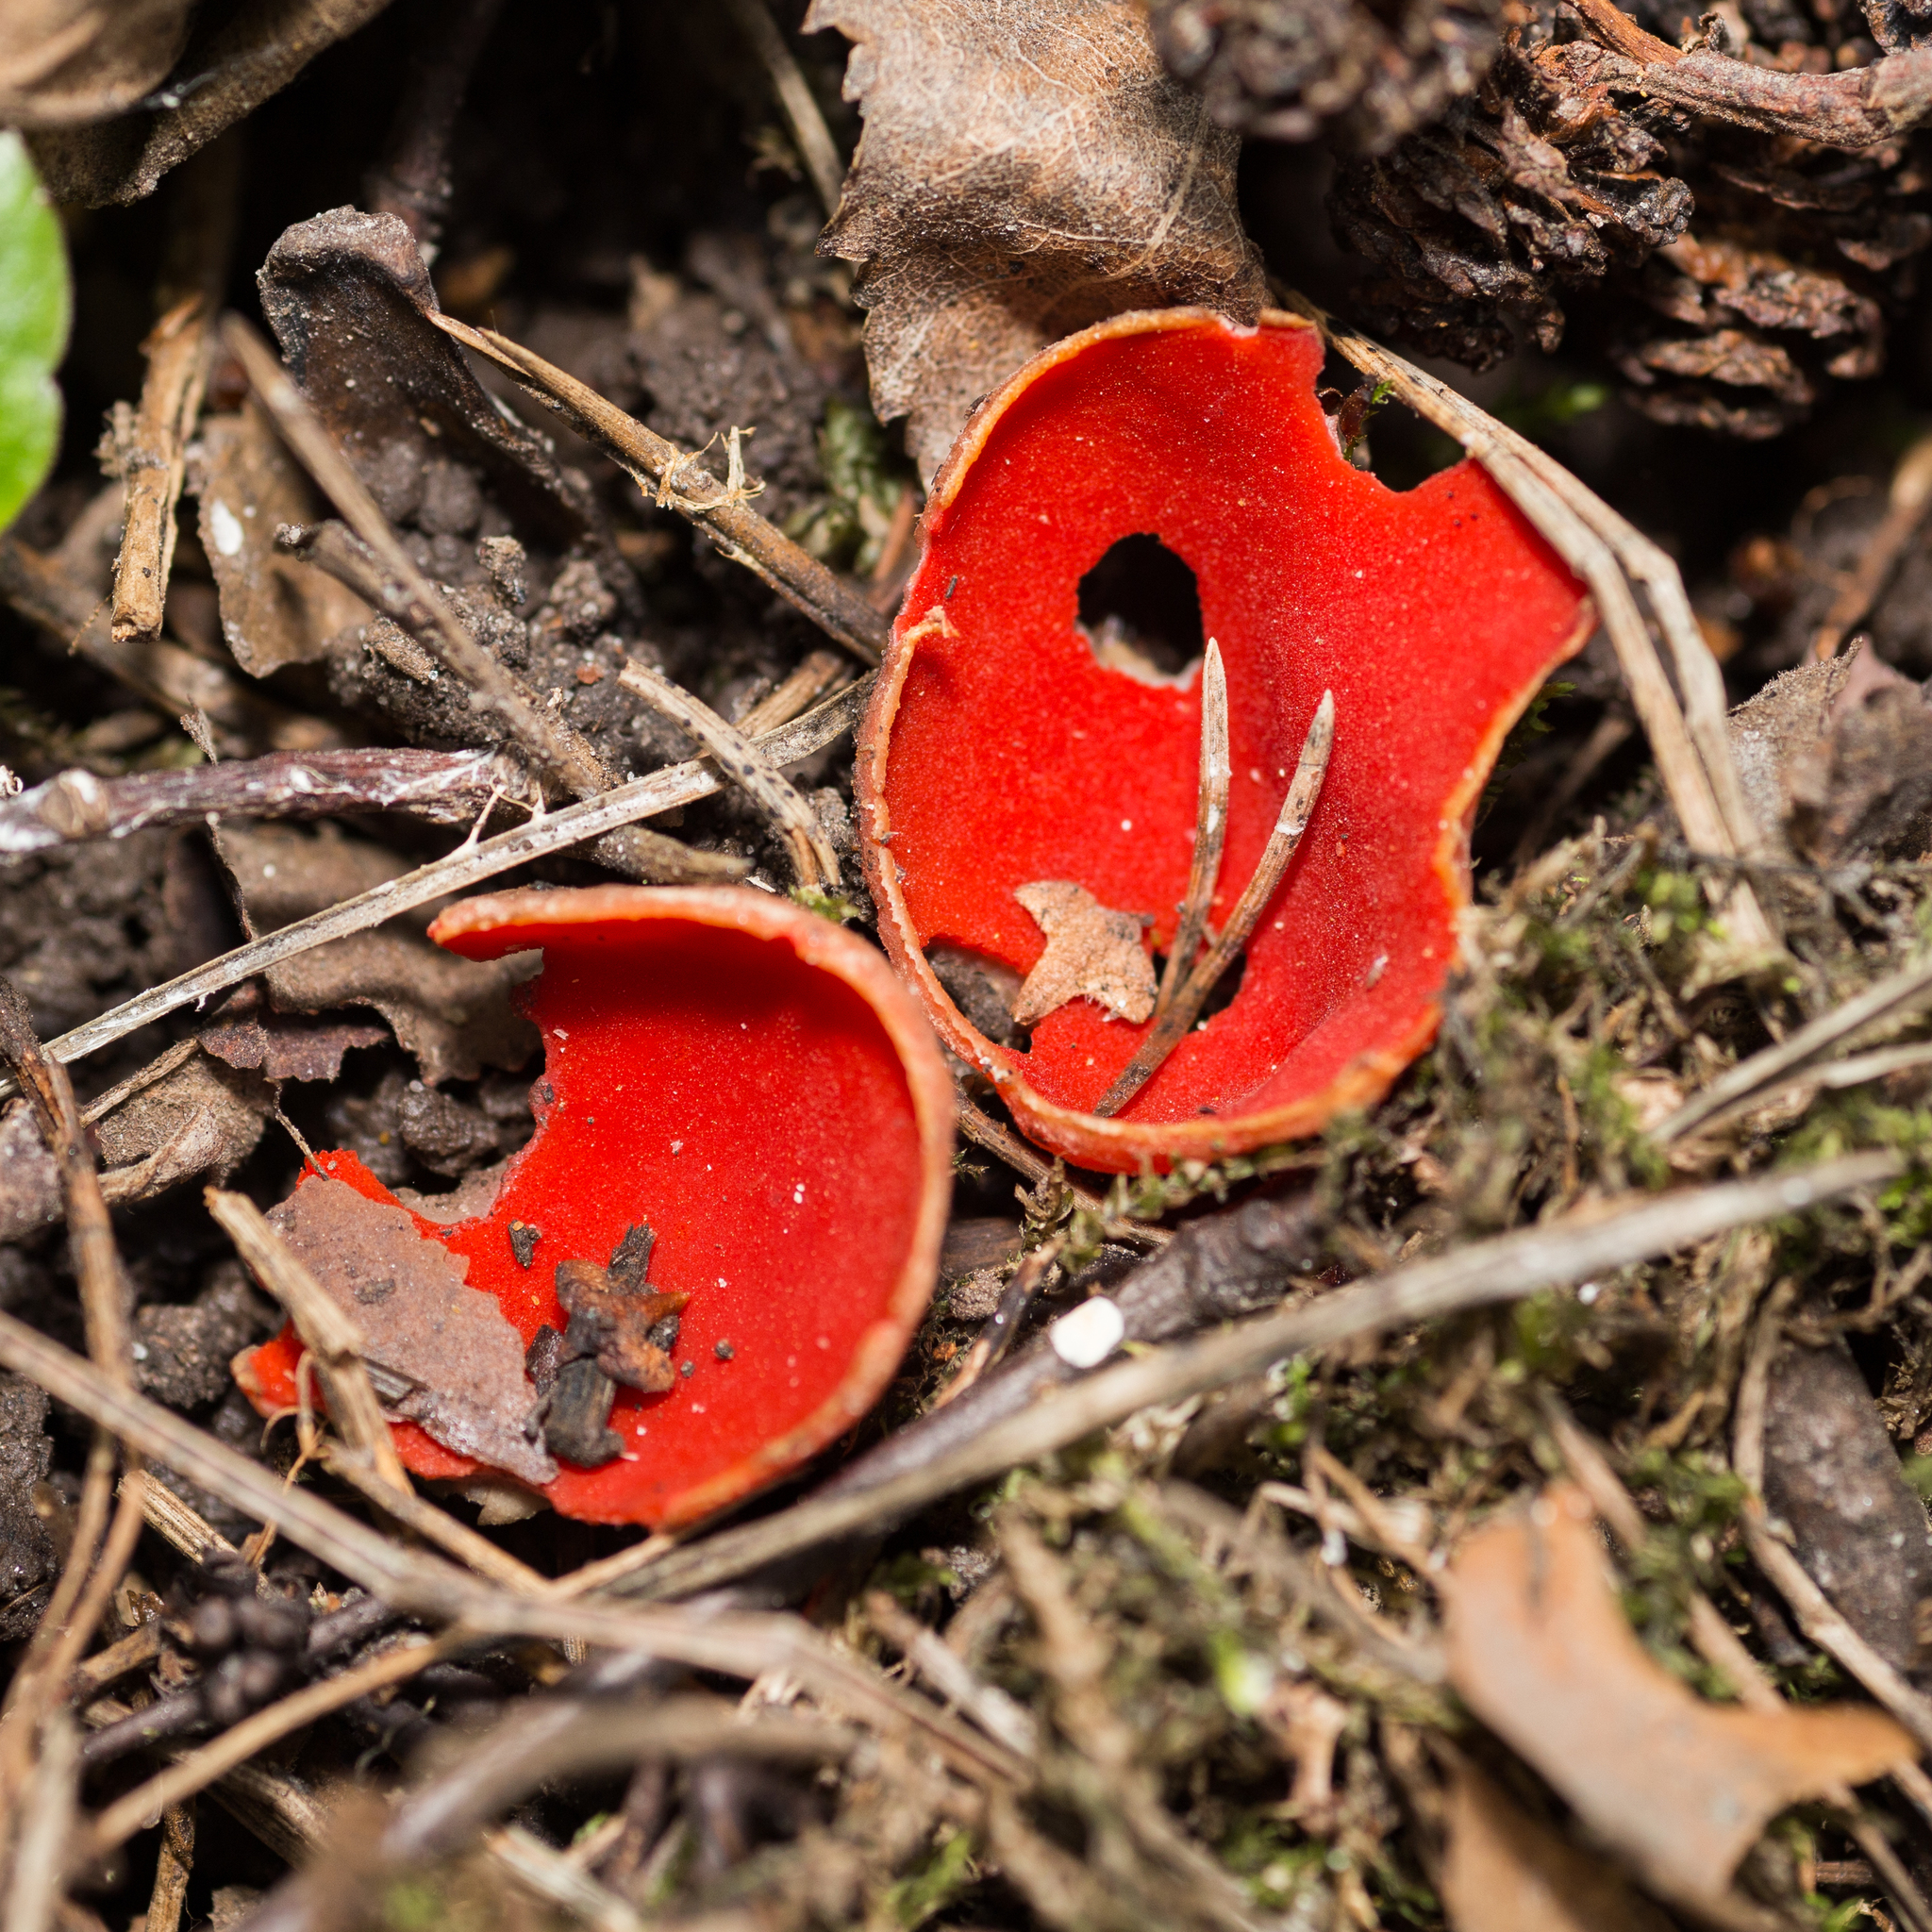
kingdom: Fungi
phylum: Ascomycota
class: Pezizomycetes
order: Pezizales
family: Sarcoscyphaceae
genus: Sarcoscypha
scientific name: Sarcoscypha austriaca
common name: Scarlet elfcup
